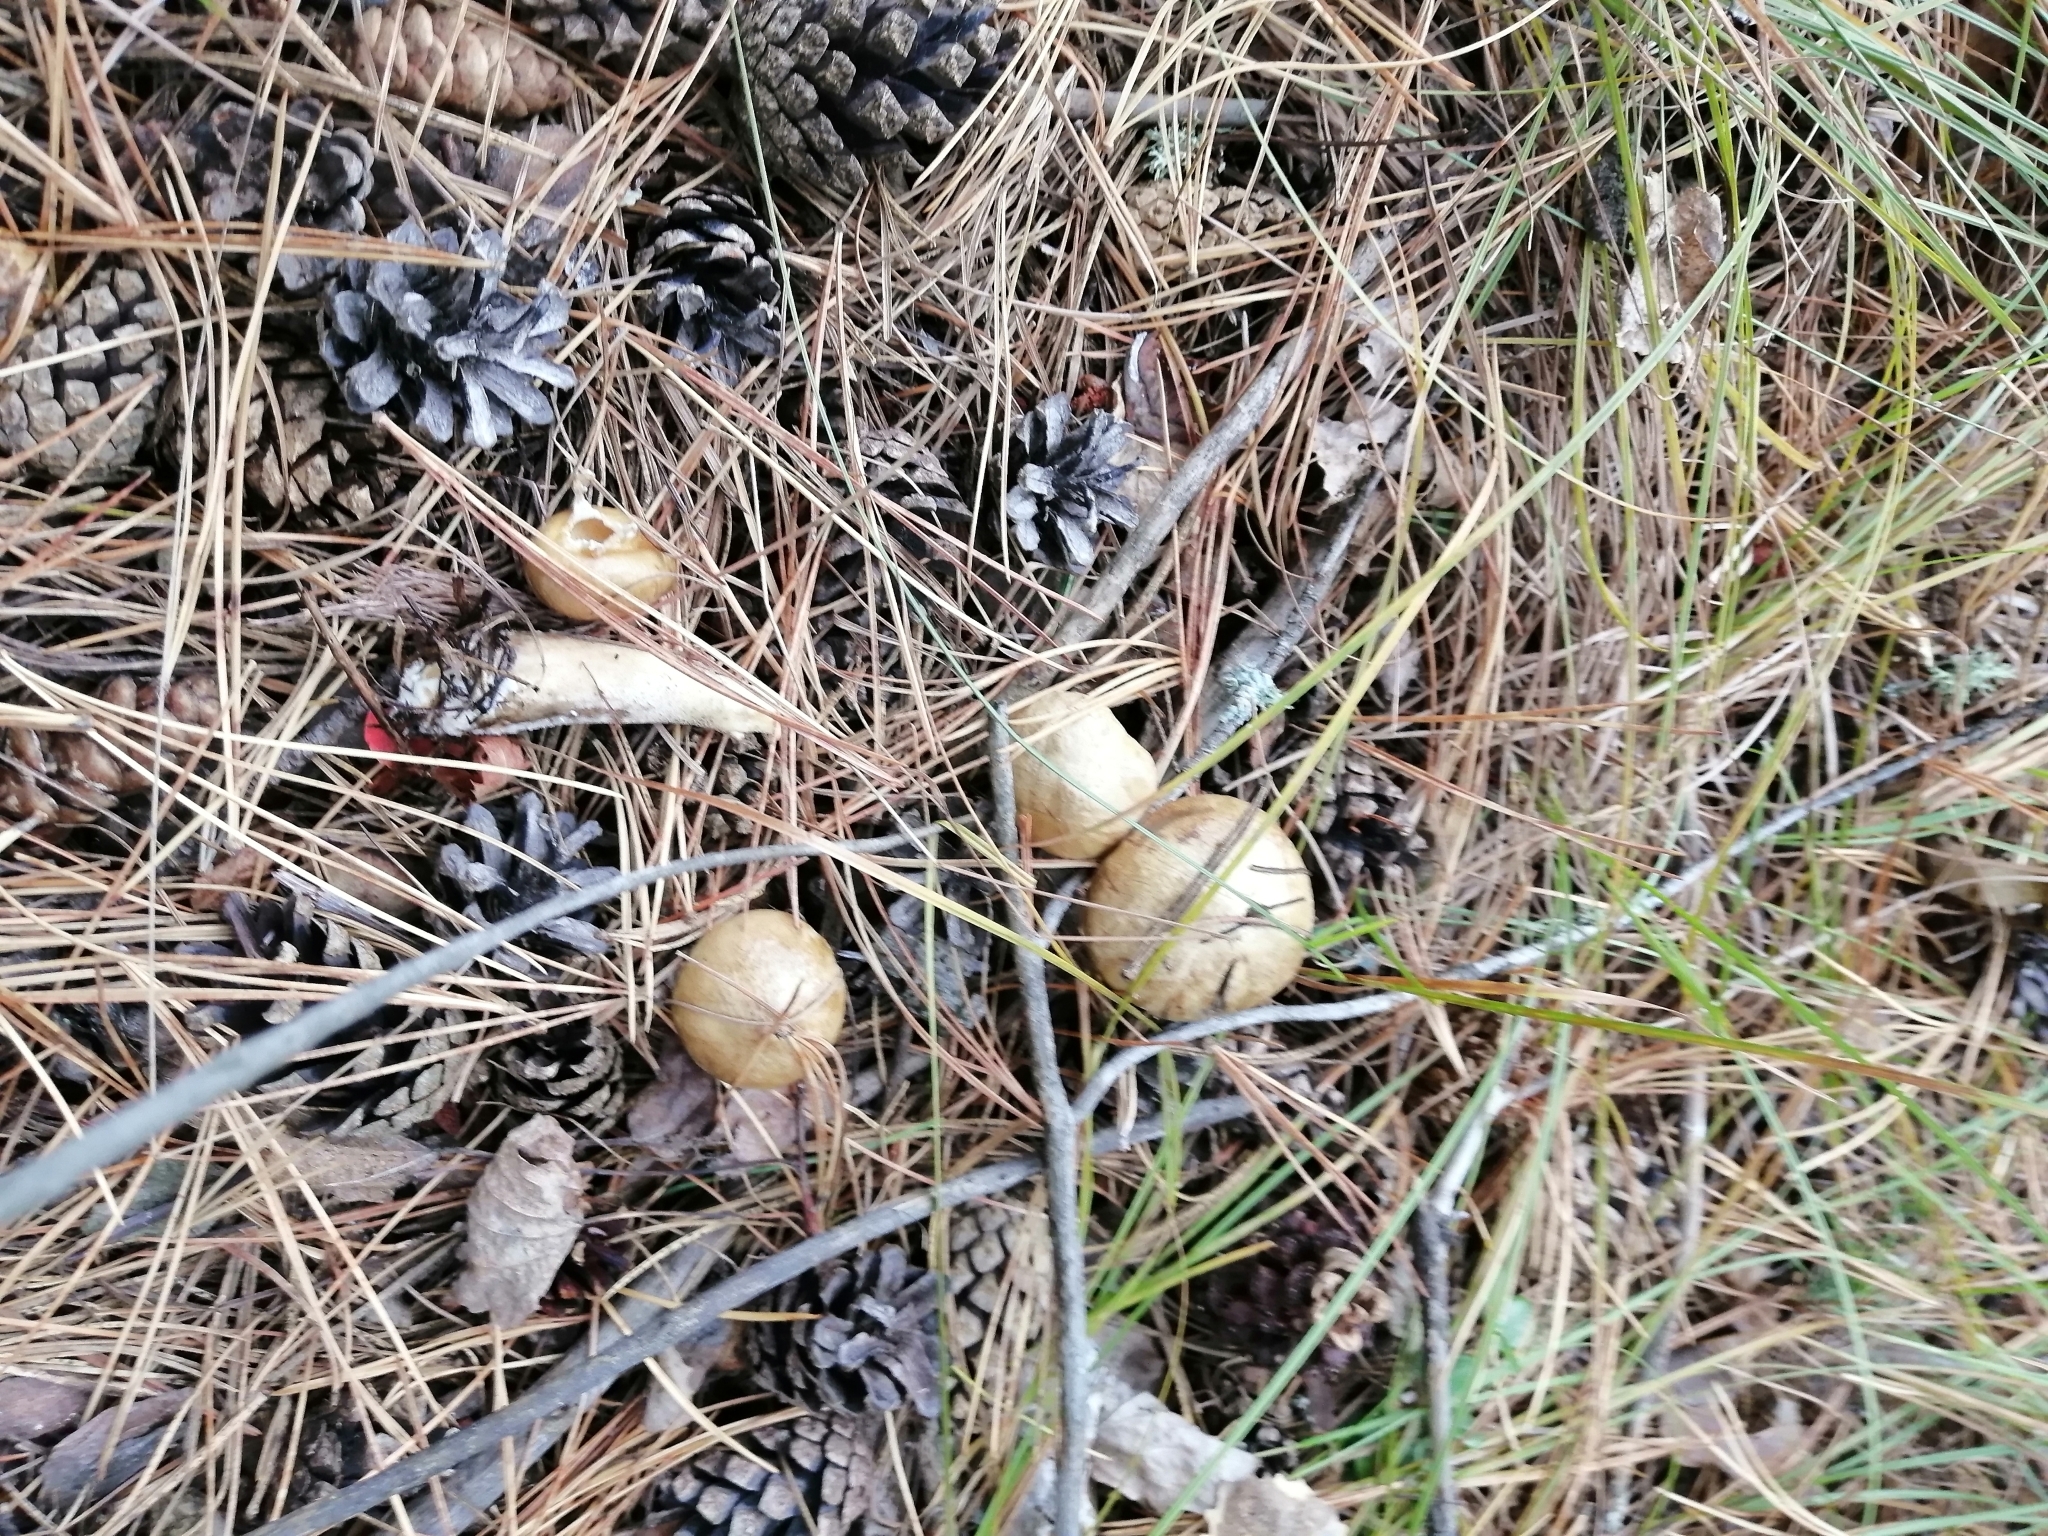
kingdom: Fungi
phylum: Basidiomycota
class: Agaricomycetes
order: Boletales
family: Suillaceae
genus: Suillus
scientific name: Suillus americanus
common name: Chicken fat mushroom
